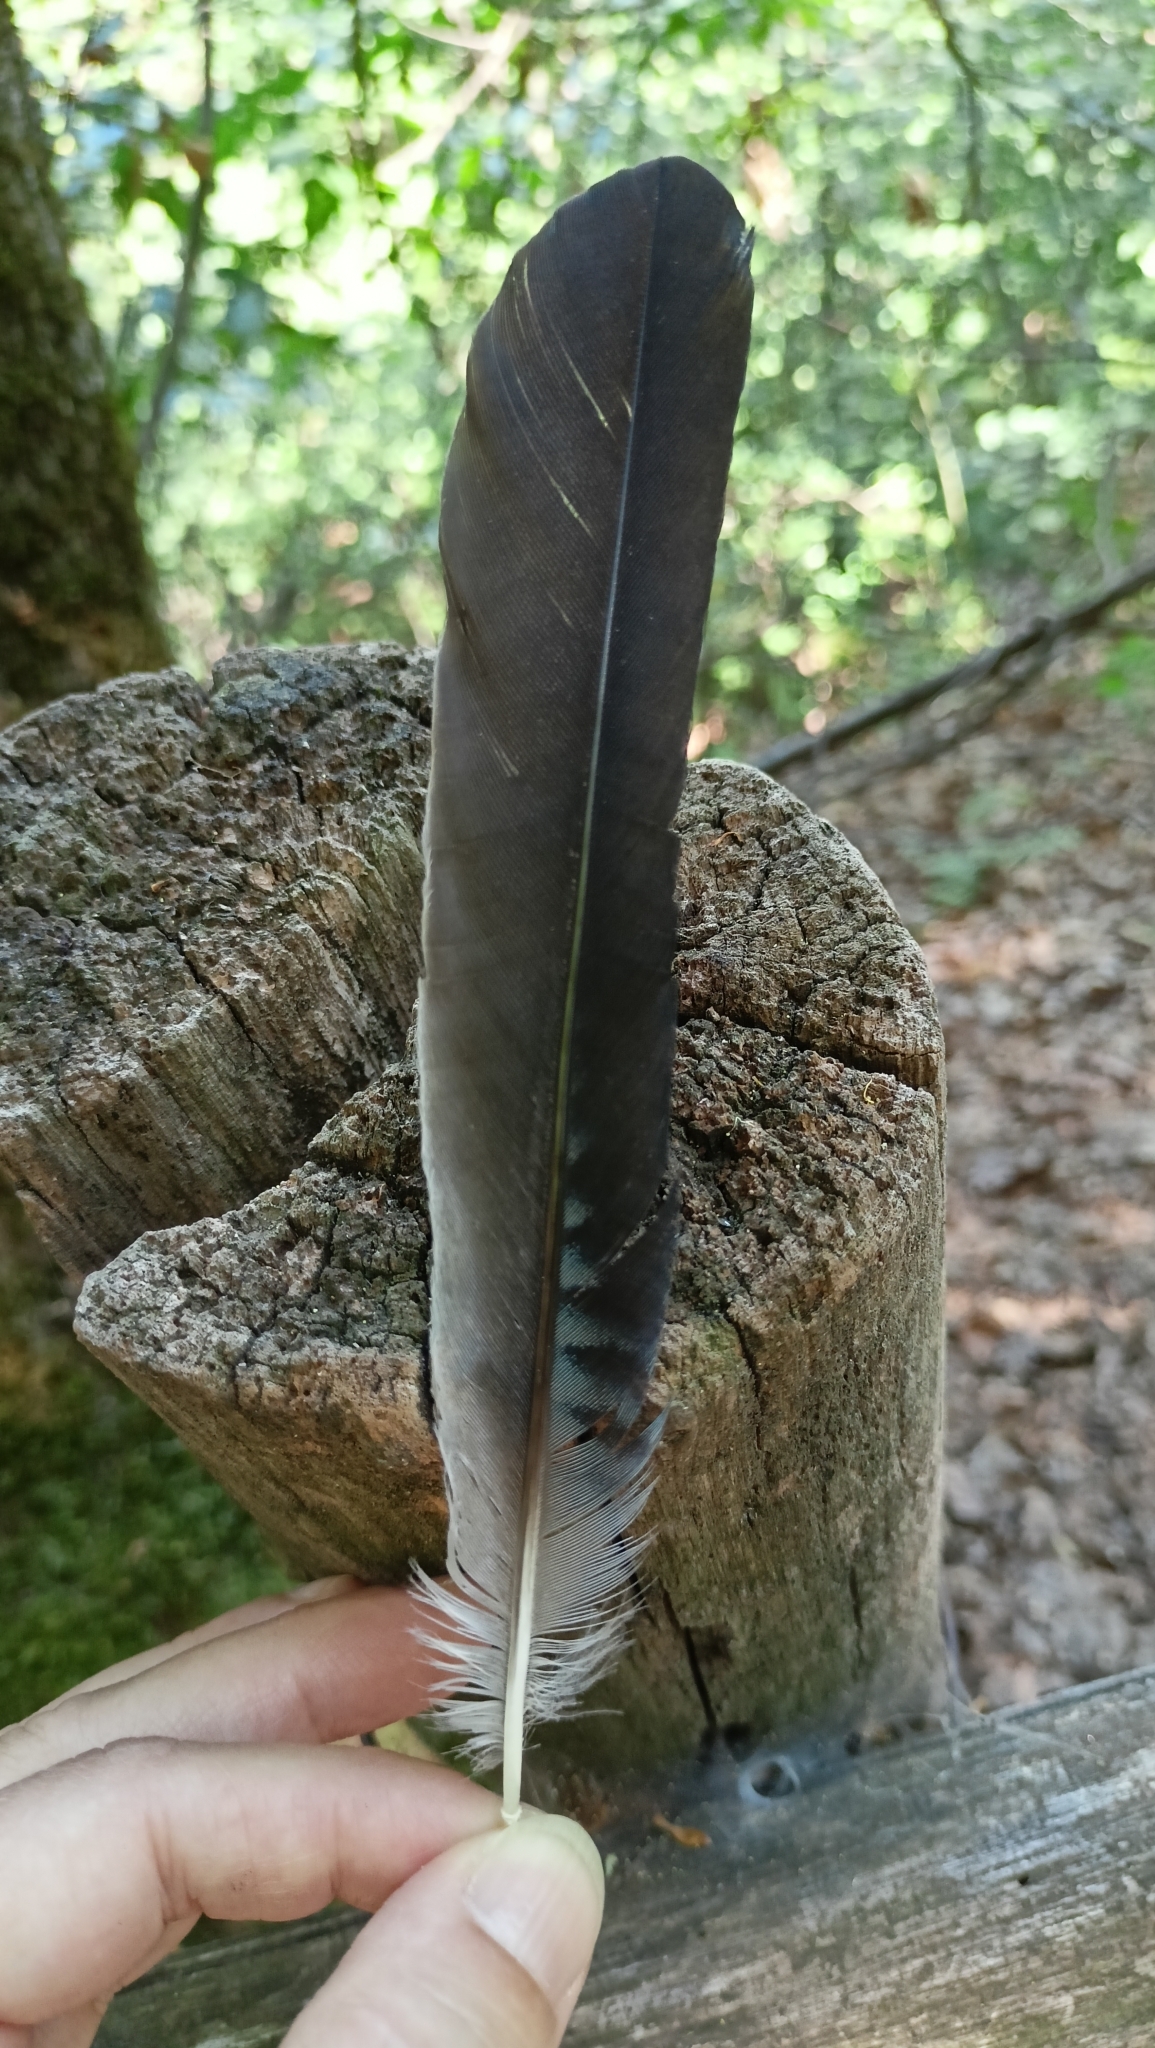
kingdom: Animalia
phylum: Chordata
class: Aves
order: Passeriformes
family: Corvidae
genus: Garrulus
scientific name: Garrulus glandarius
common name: Eurasian jay
